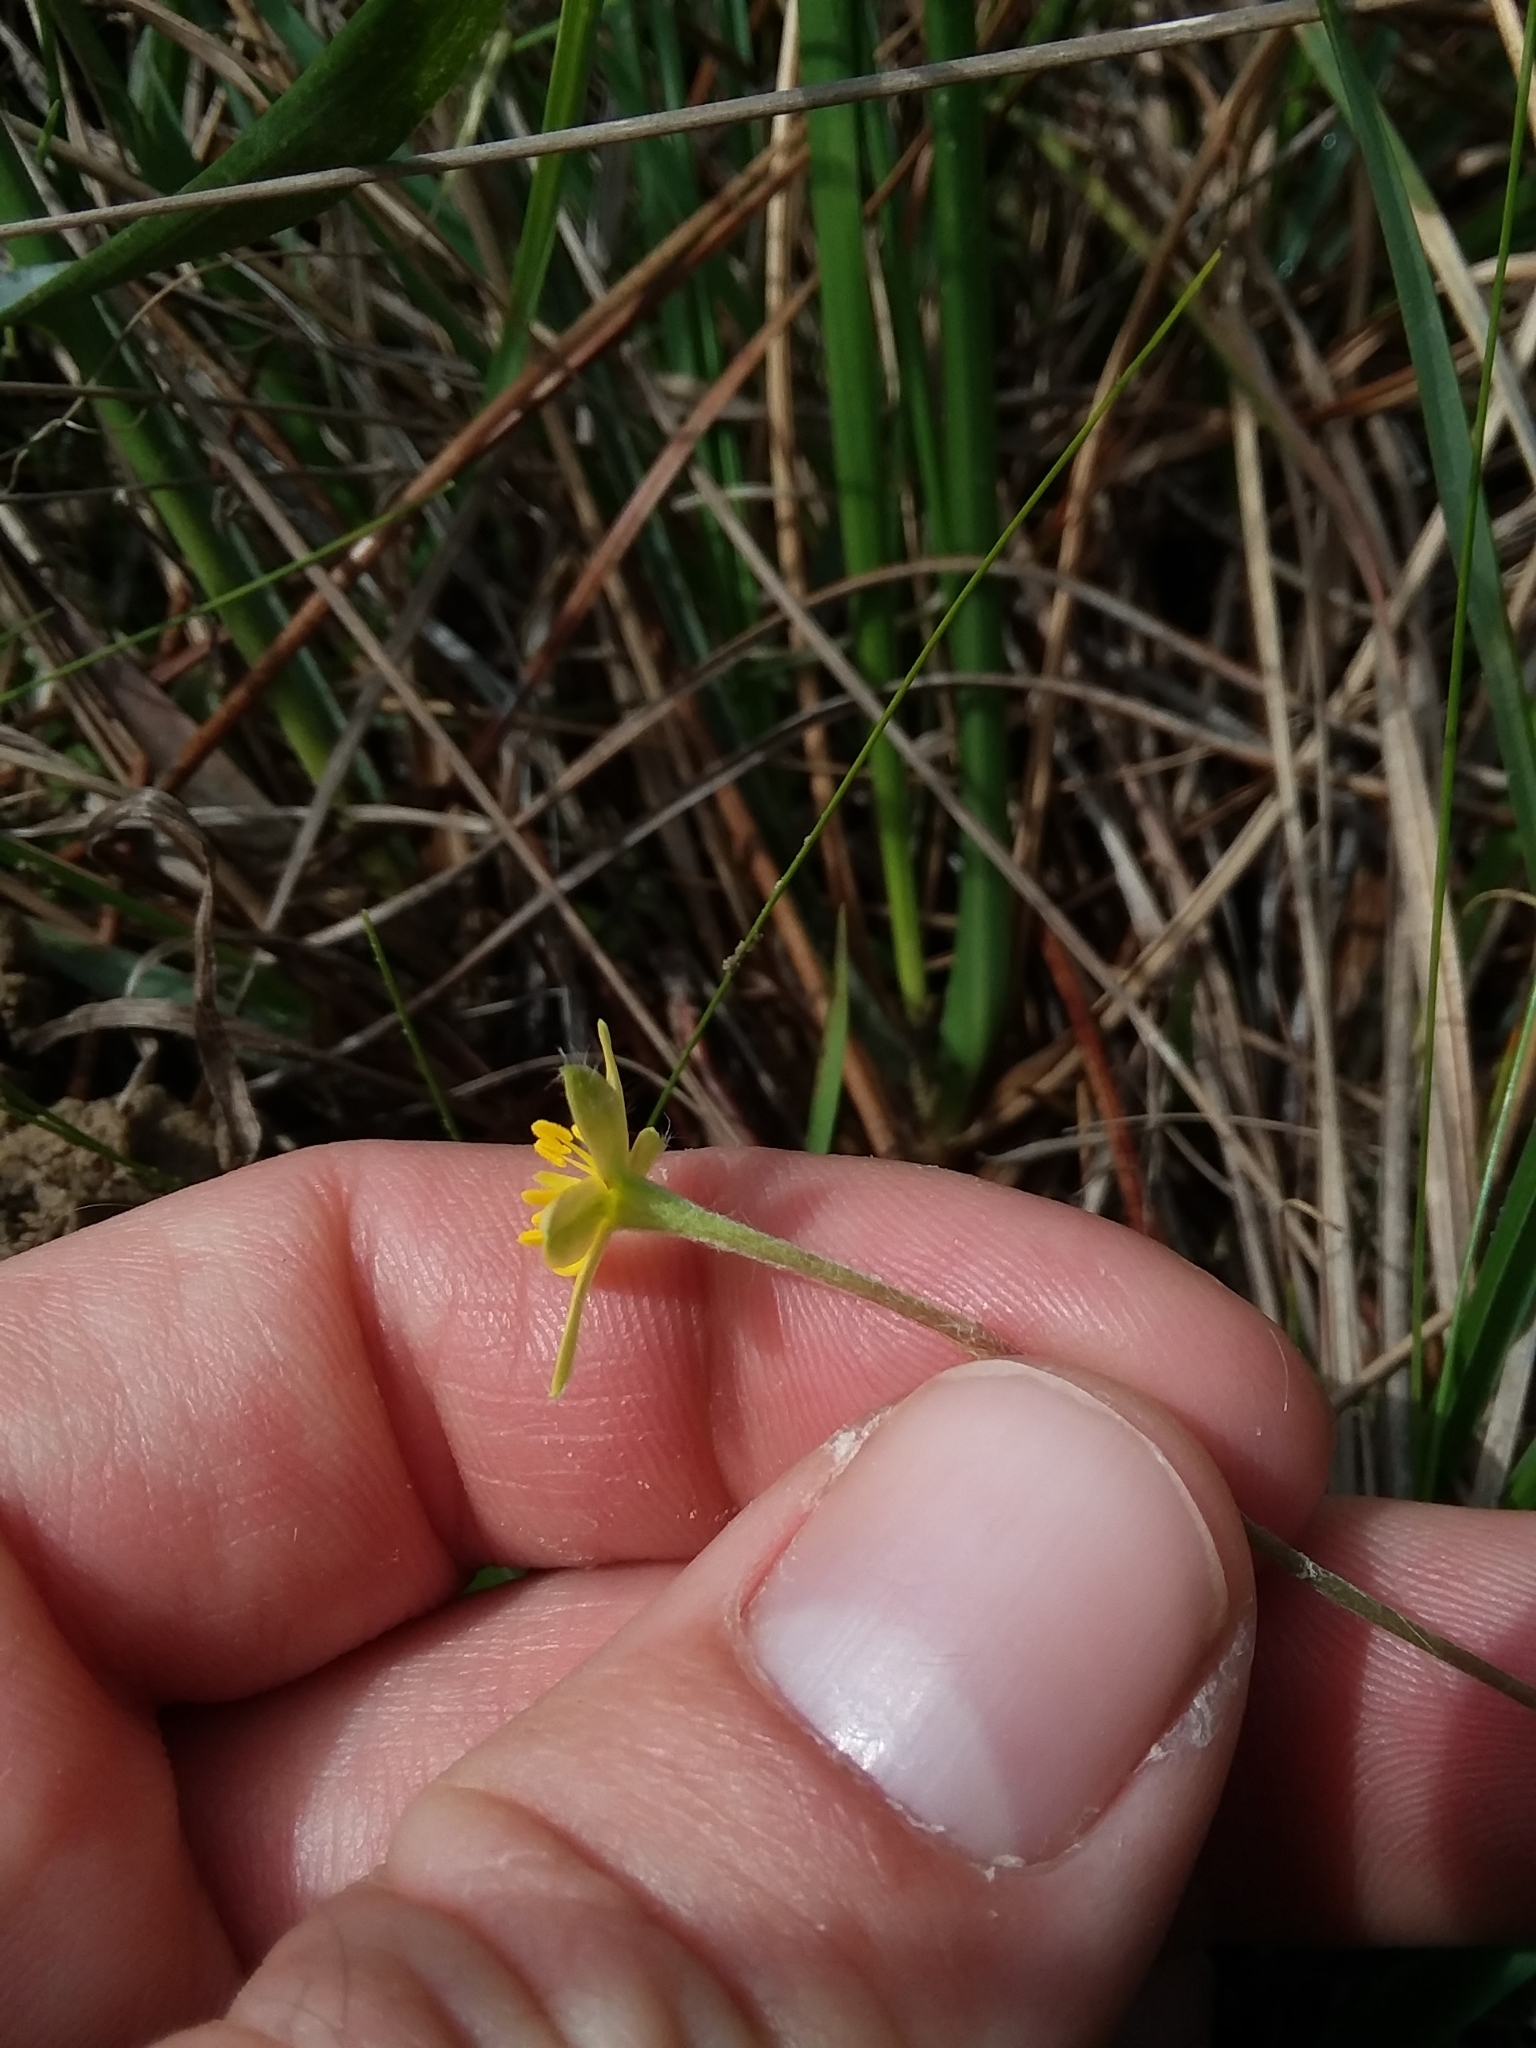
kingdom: Plantae
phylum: Tracheophyta
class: Liliopsida
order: Asparagales
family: Hypoxidaceae
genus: Hypoxis
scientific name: Hypoxis sessilis
